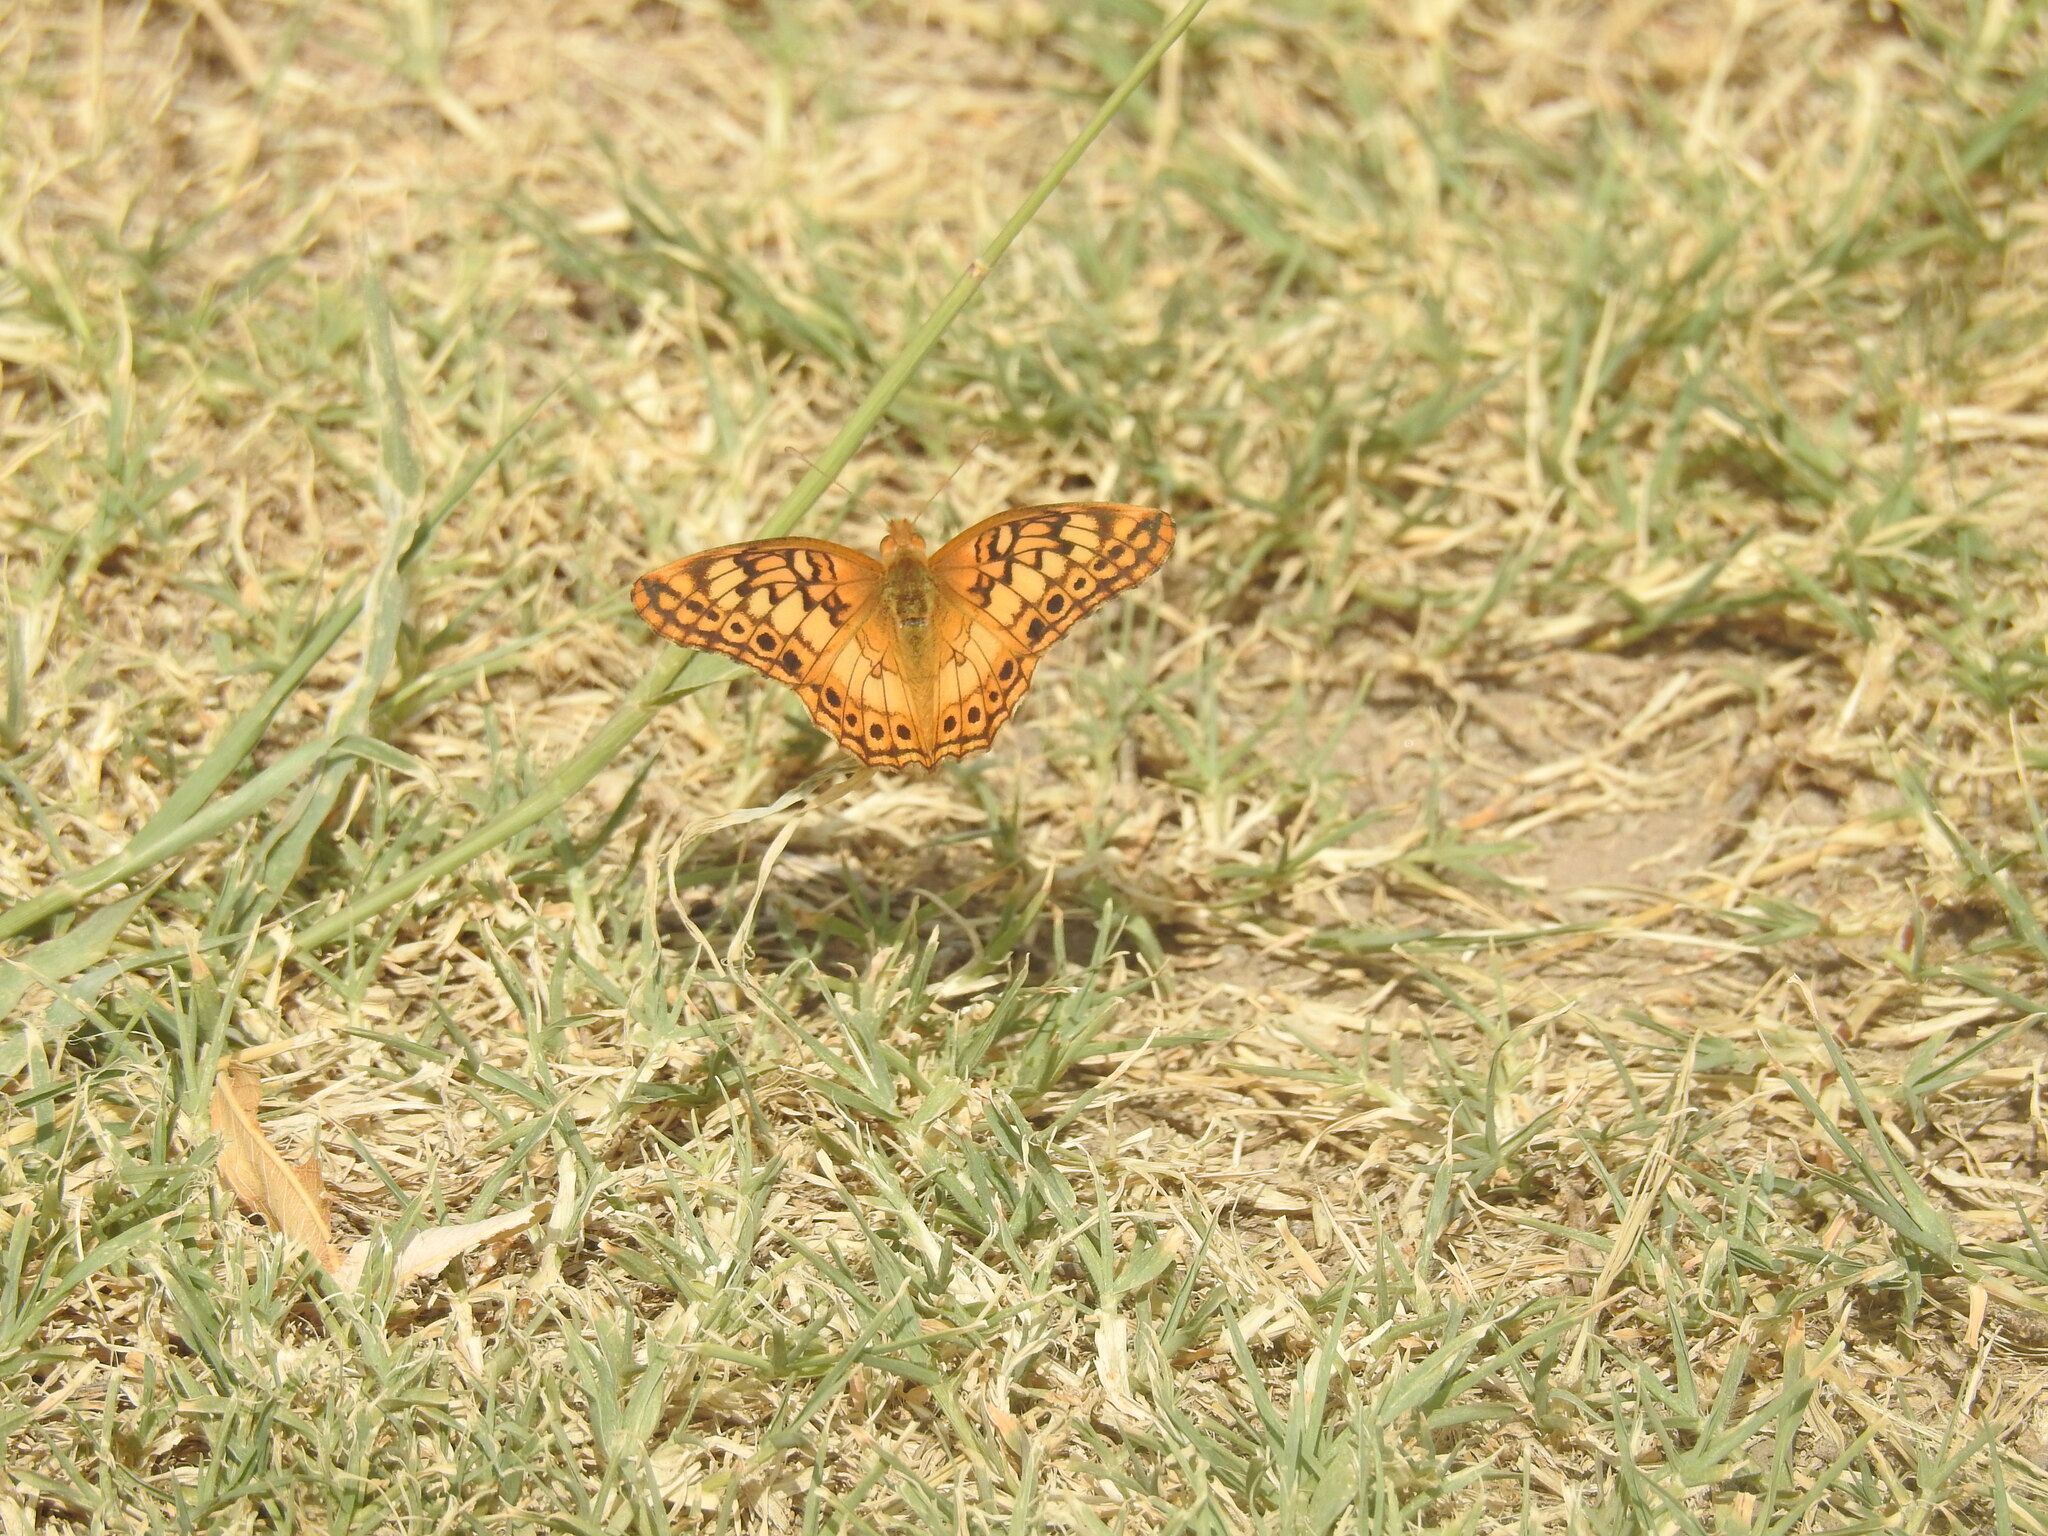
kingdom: Animalia
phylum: Arthropoda
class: Insecta
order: Lepidoptera
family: Nymphalidae
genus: Euptoieta
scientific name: Euptoieta hortensia
